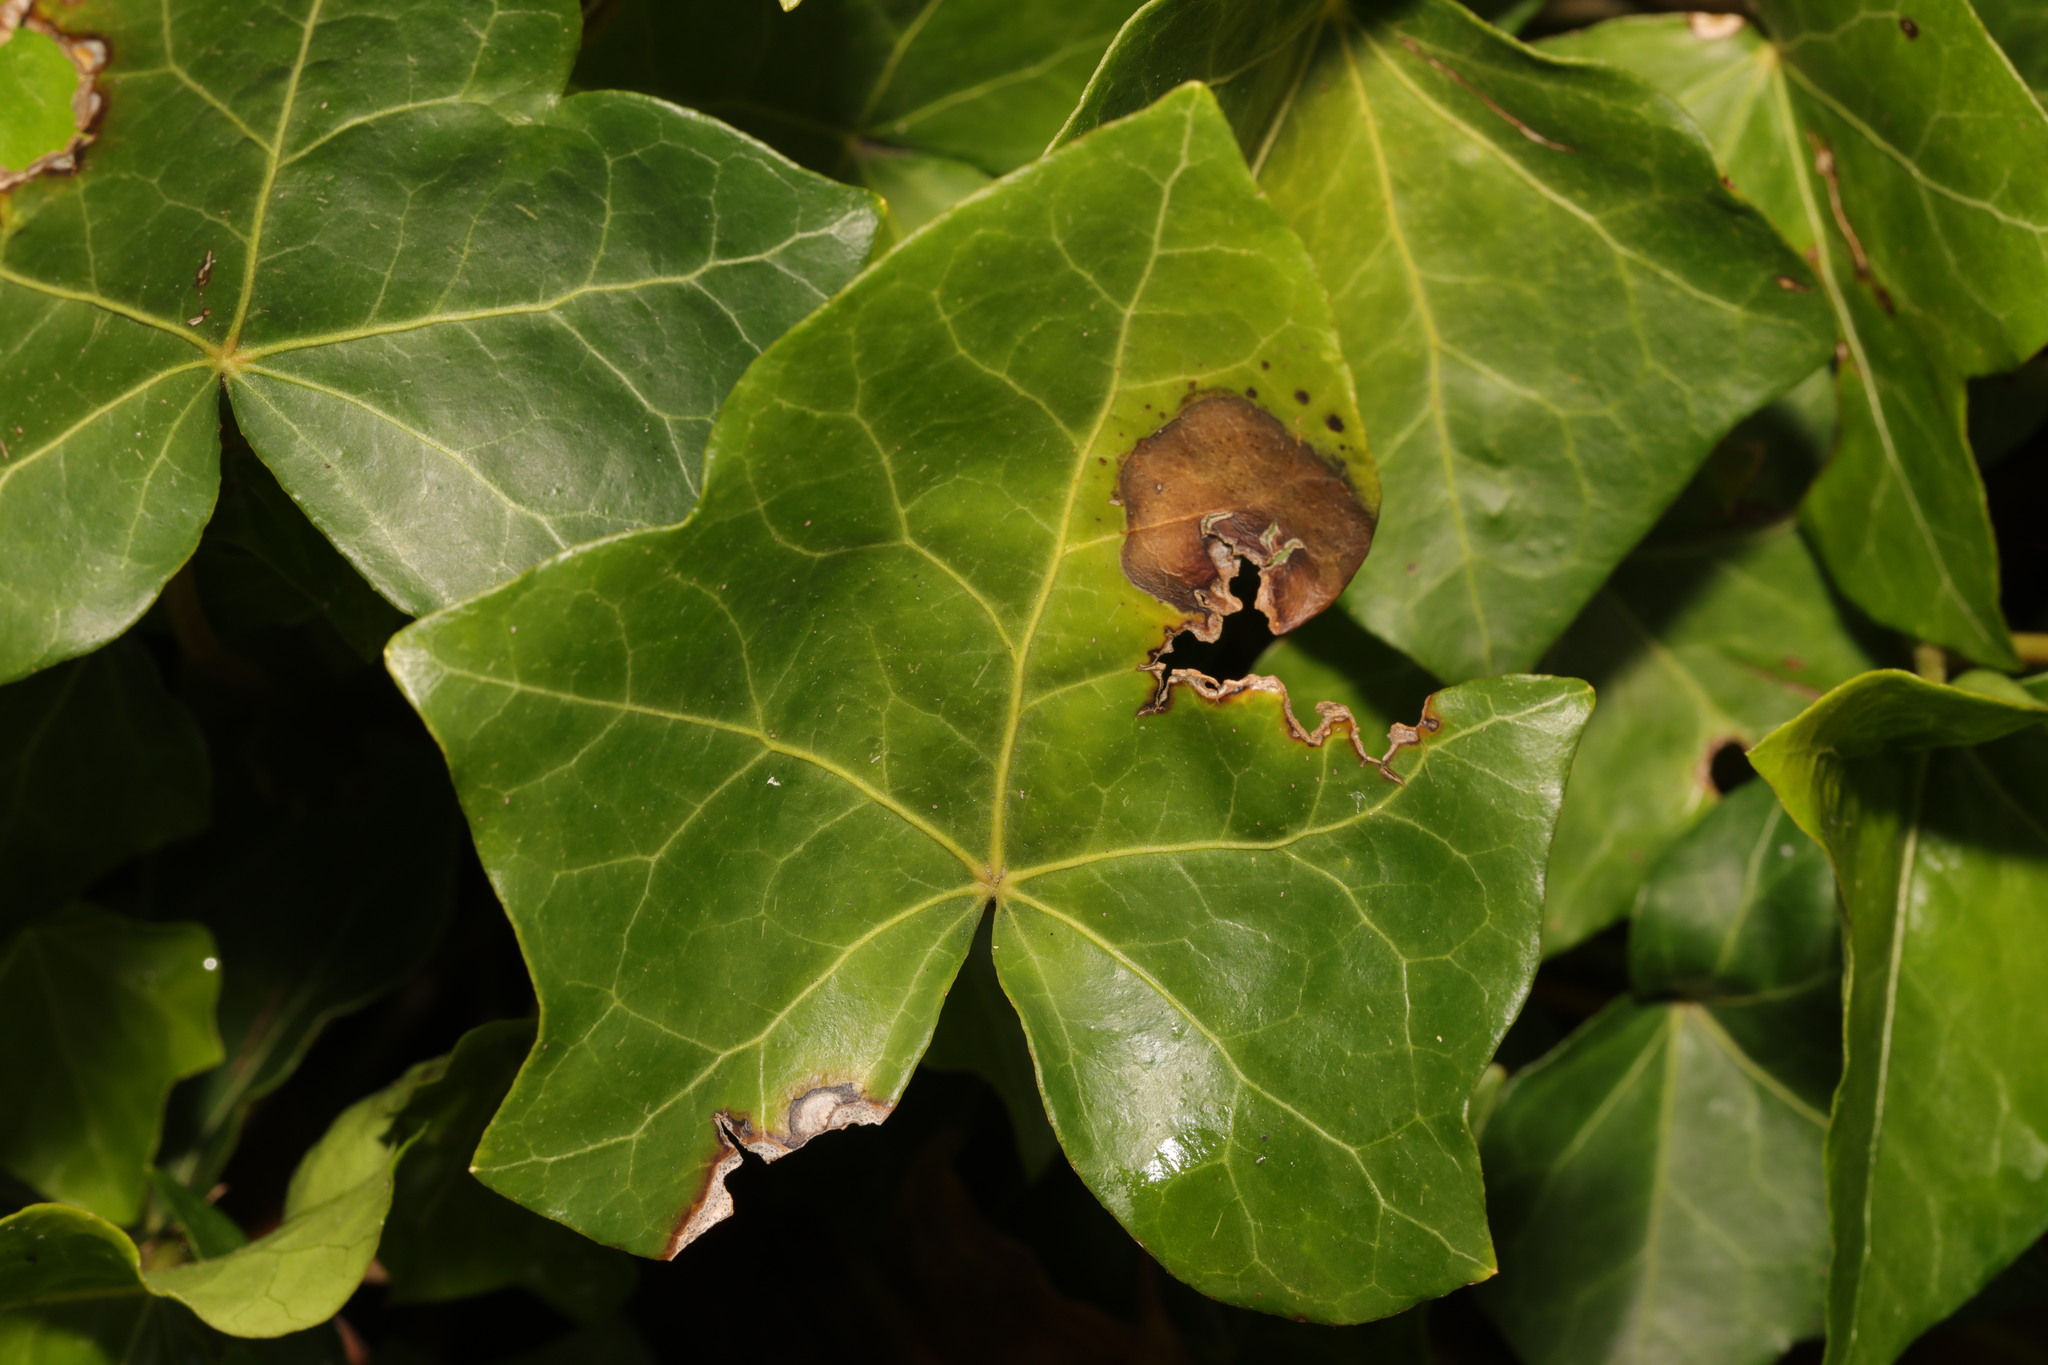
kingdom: Fungi
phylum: Ascomycota
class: Dothideomycetes
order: Pleosporales
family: Didymellaceae
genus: Boeremia
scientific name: Boeremia hedericola
